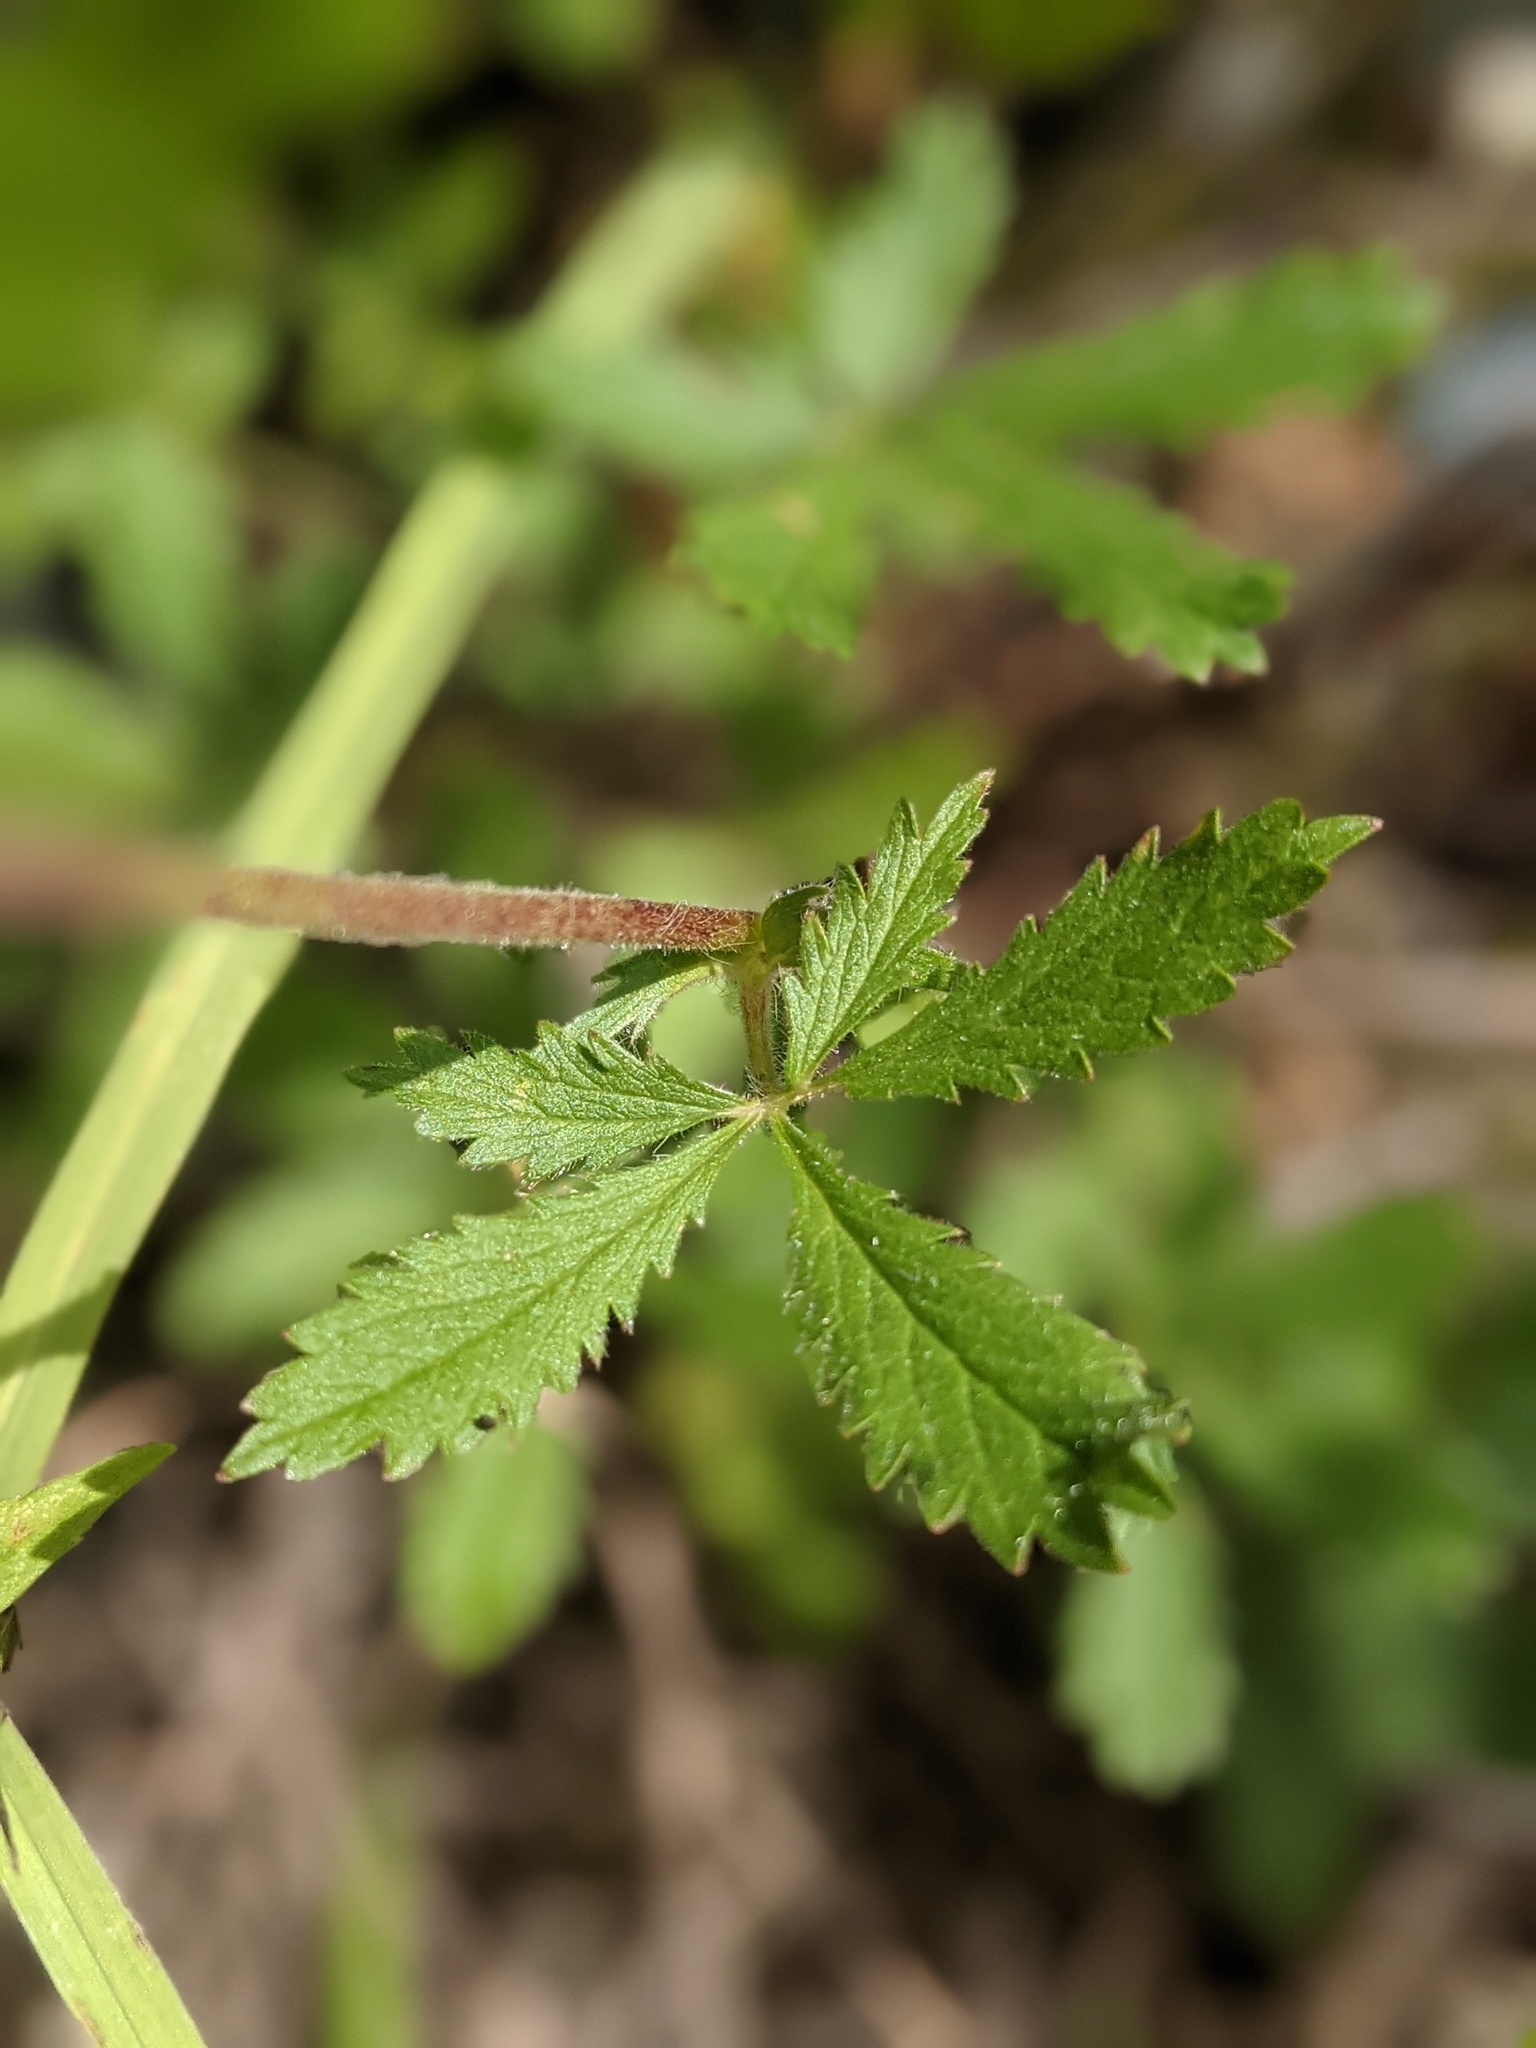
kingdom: Plantae
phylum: Tracheophyta
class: Magnoliopsida
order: Rosales
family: Rosaceae
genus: Potentilla
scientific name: Potentilla recta
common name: Sulphur cinquefoil
